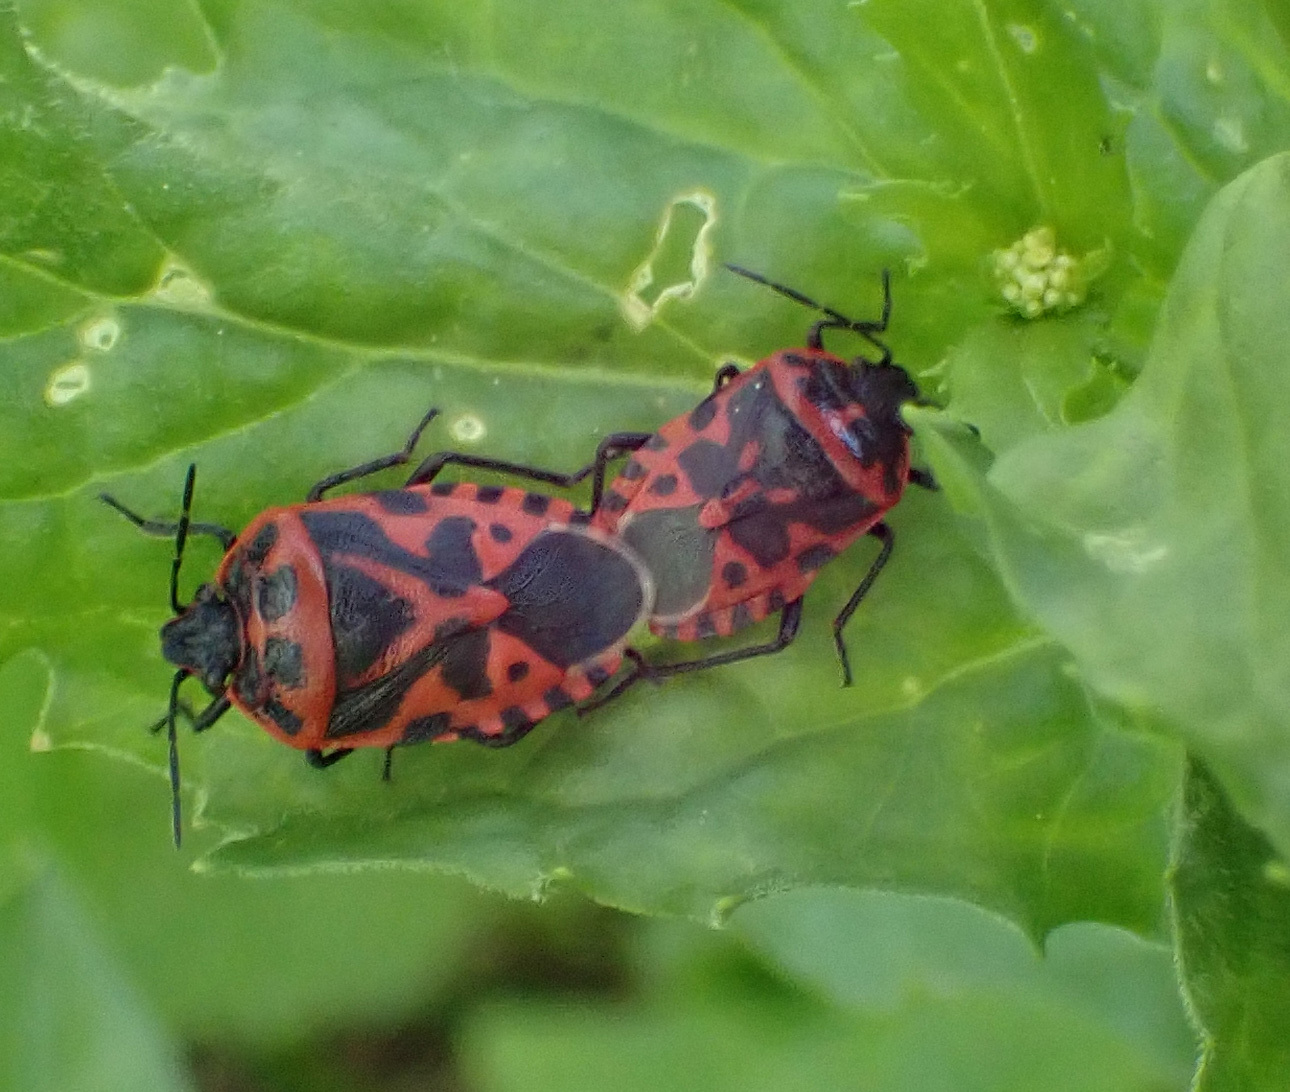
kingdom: Animalia
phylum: Arthropoda
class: Insecta
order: Hemiptera
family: Pentatomidae
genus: Eurydema
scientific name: Eurydema ventralis
